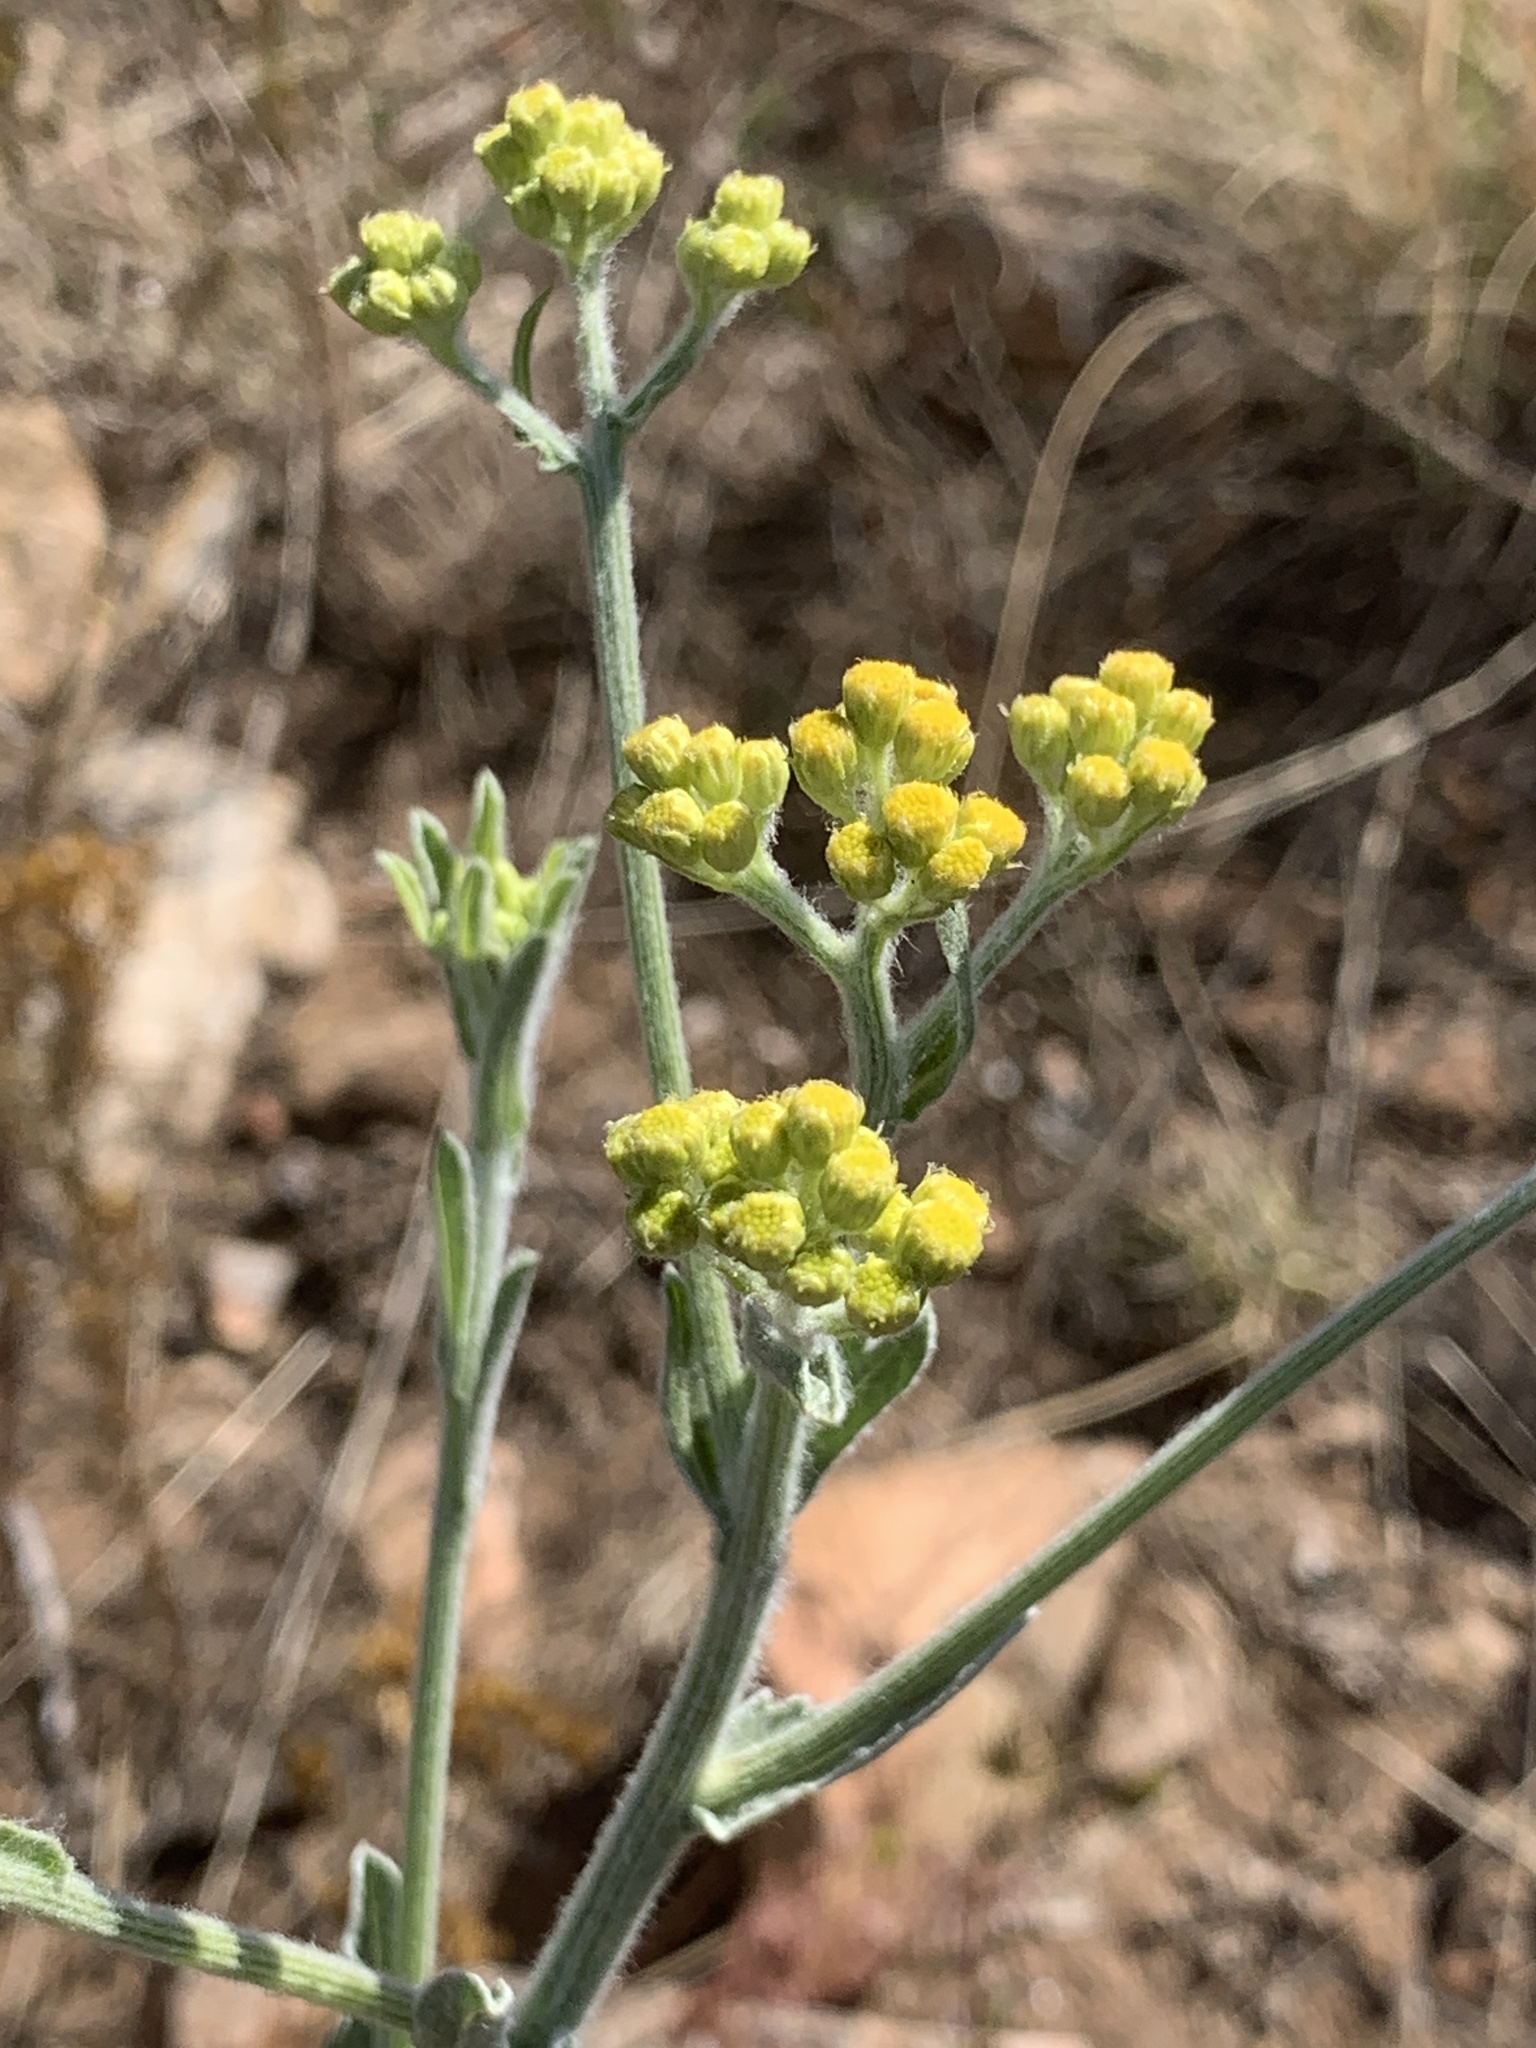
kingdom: Plantae
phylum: Tracheophyta
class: Magnoliopsida
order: Asterales
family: Asteraceae
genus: Nidorella
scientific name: Nidorella hottentotica
